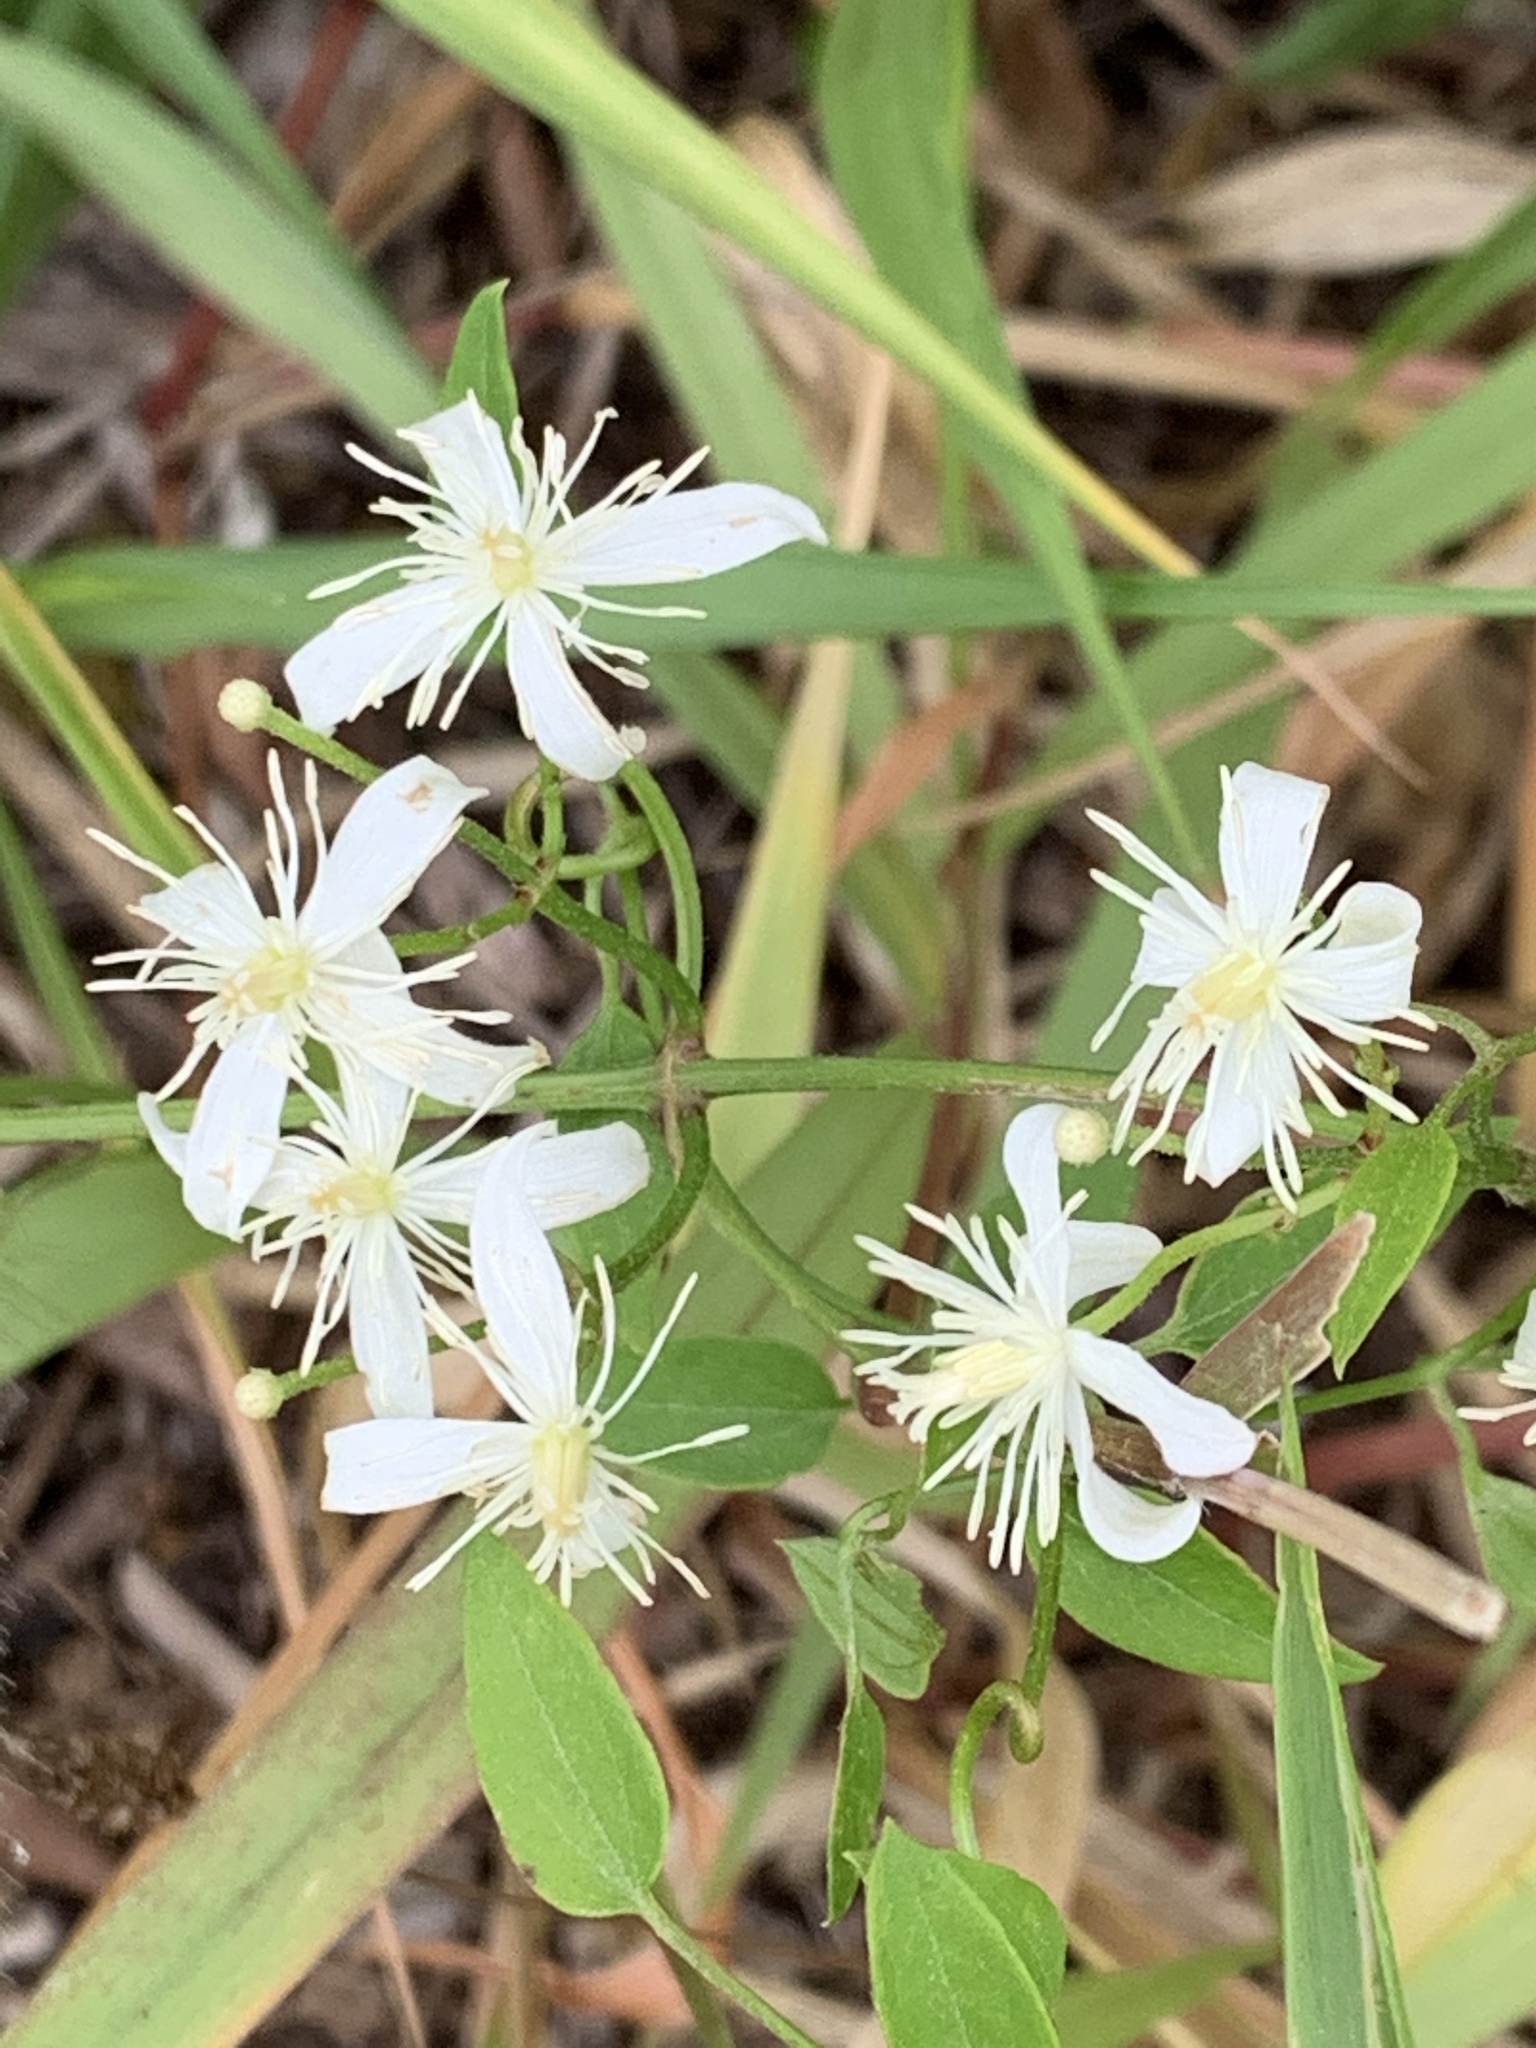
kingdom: Plantae
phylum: Tracheophyta
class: Magnoliopsida
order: Ranunculales
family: Ranunculaceae
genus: Clematis
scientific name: Clematis terniflora
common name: Sweet autumn clematis
